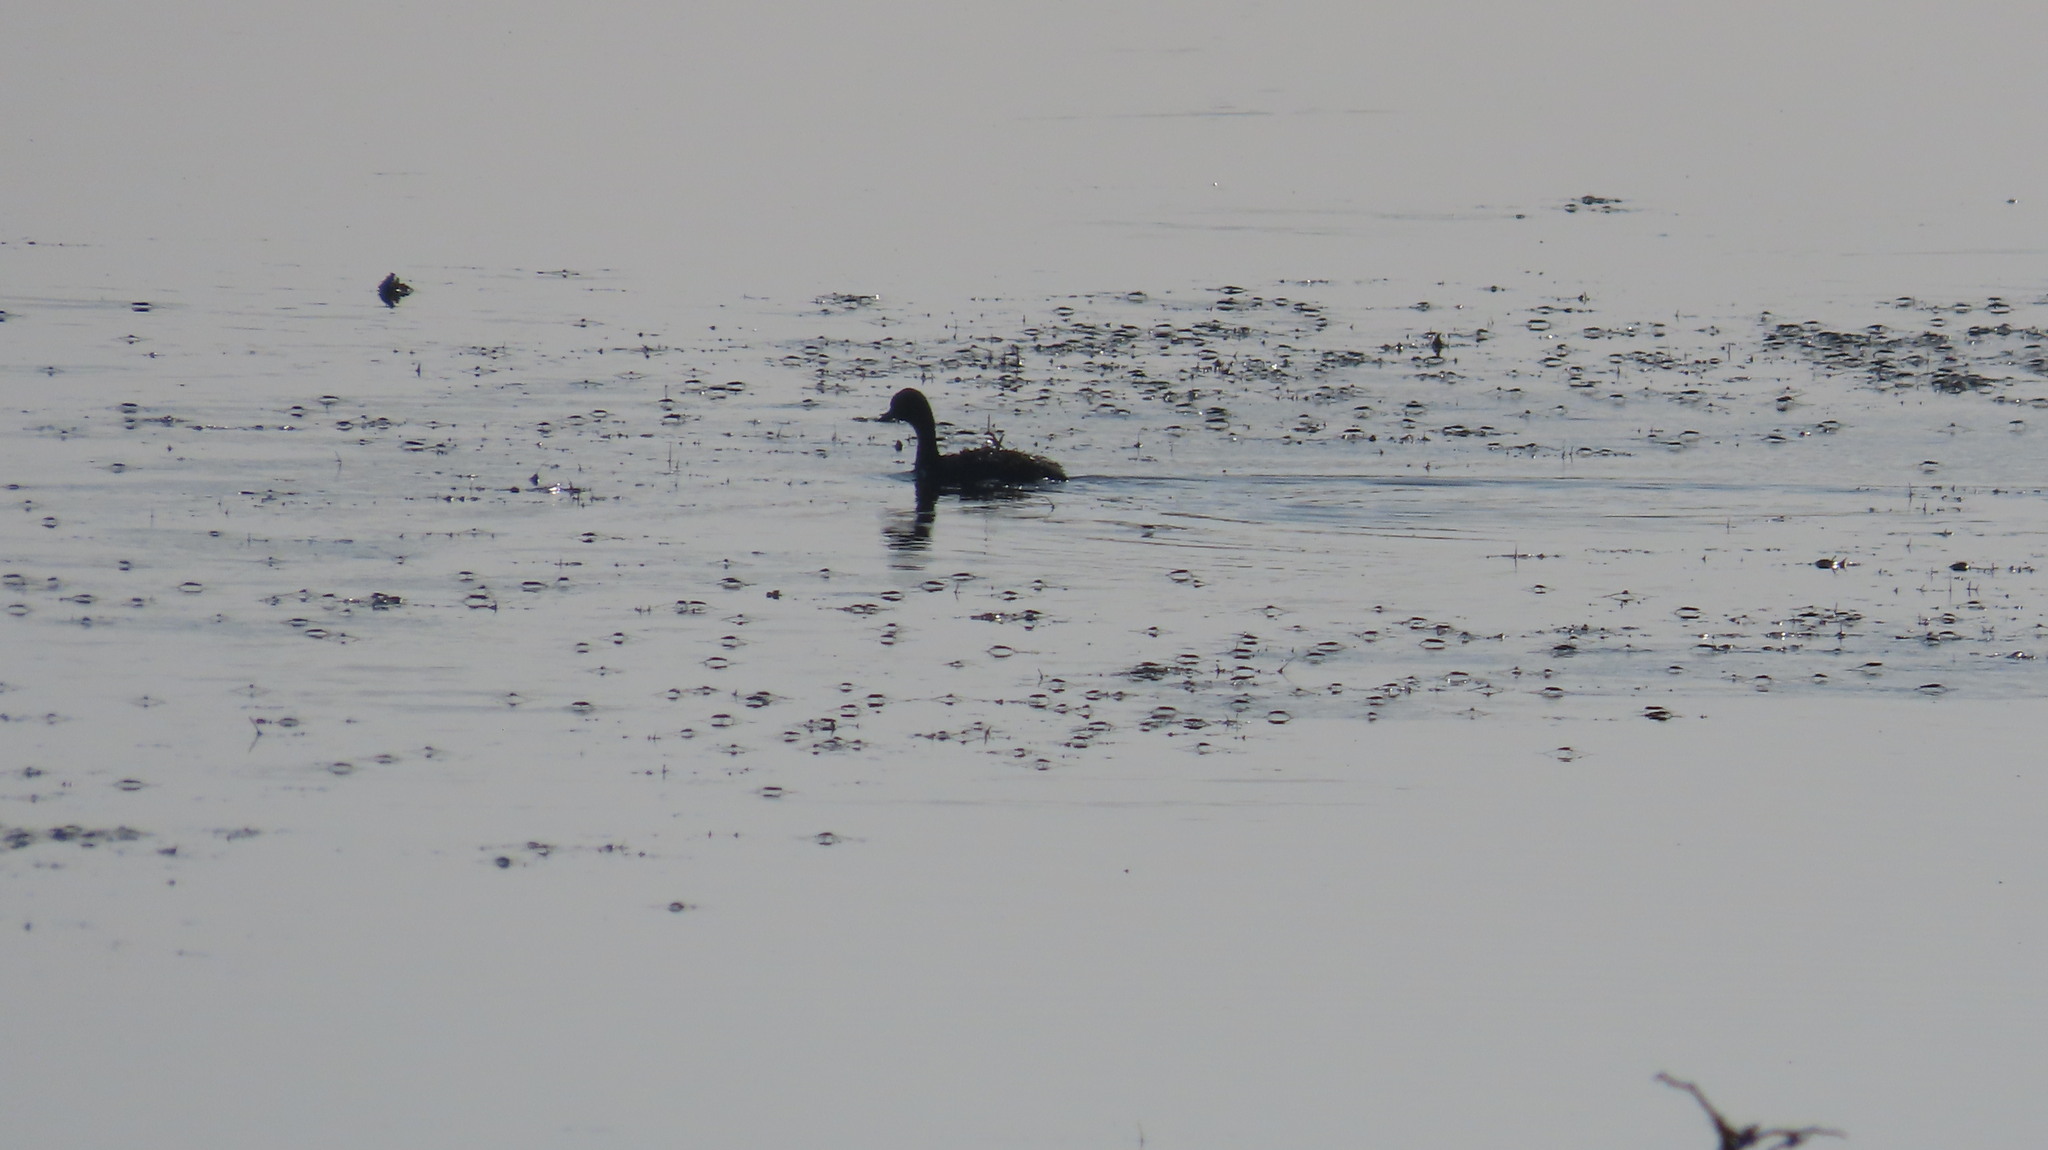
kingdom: Animalia
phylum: Chordata
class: Aves
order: Podicipediformes
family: Podicipedidae
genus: Tachybaptus
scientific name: Tachybaptus ruficollis
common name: Little grebe
